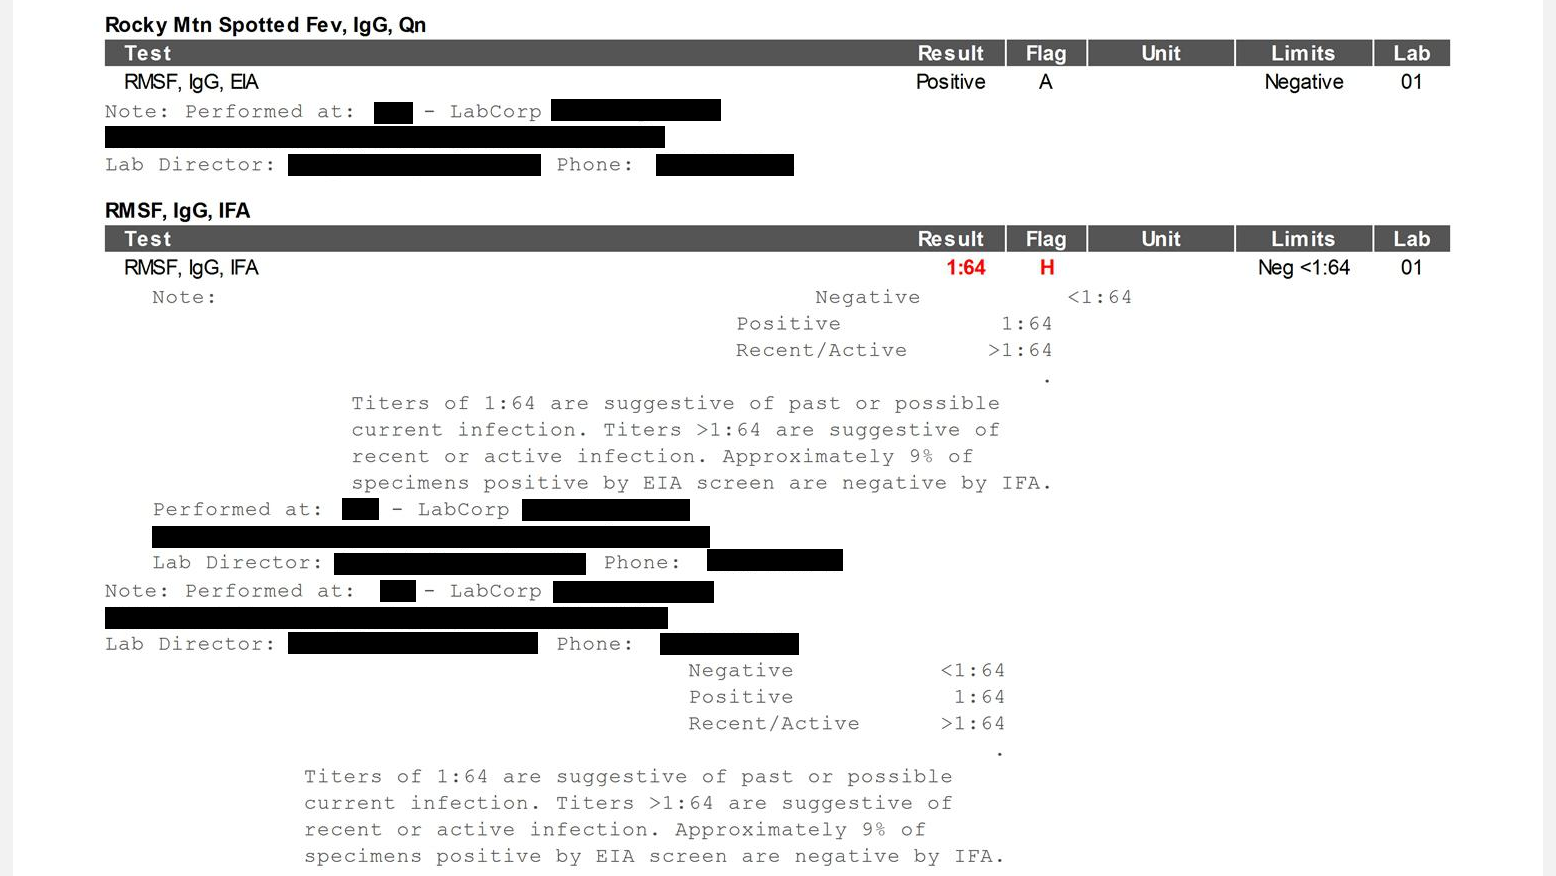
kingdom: Bacteria
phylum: Proteobacteria
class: Alphaproteobacteria
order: Rickettsiales
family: Rickettsiaceae
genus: Rickettsia
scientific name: Rickettsia rickettsii
